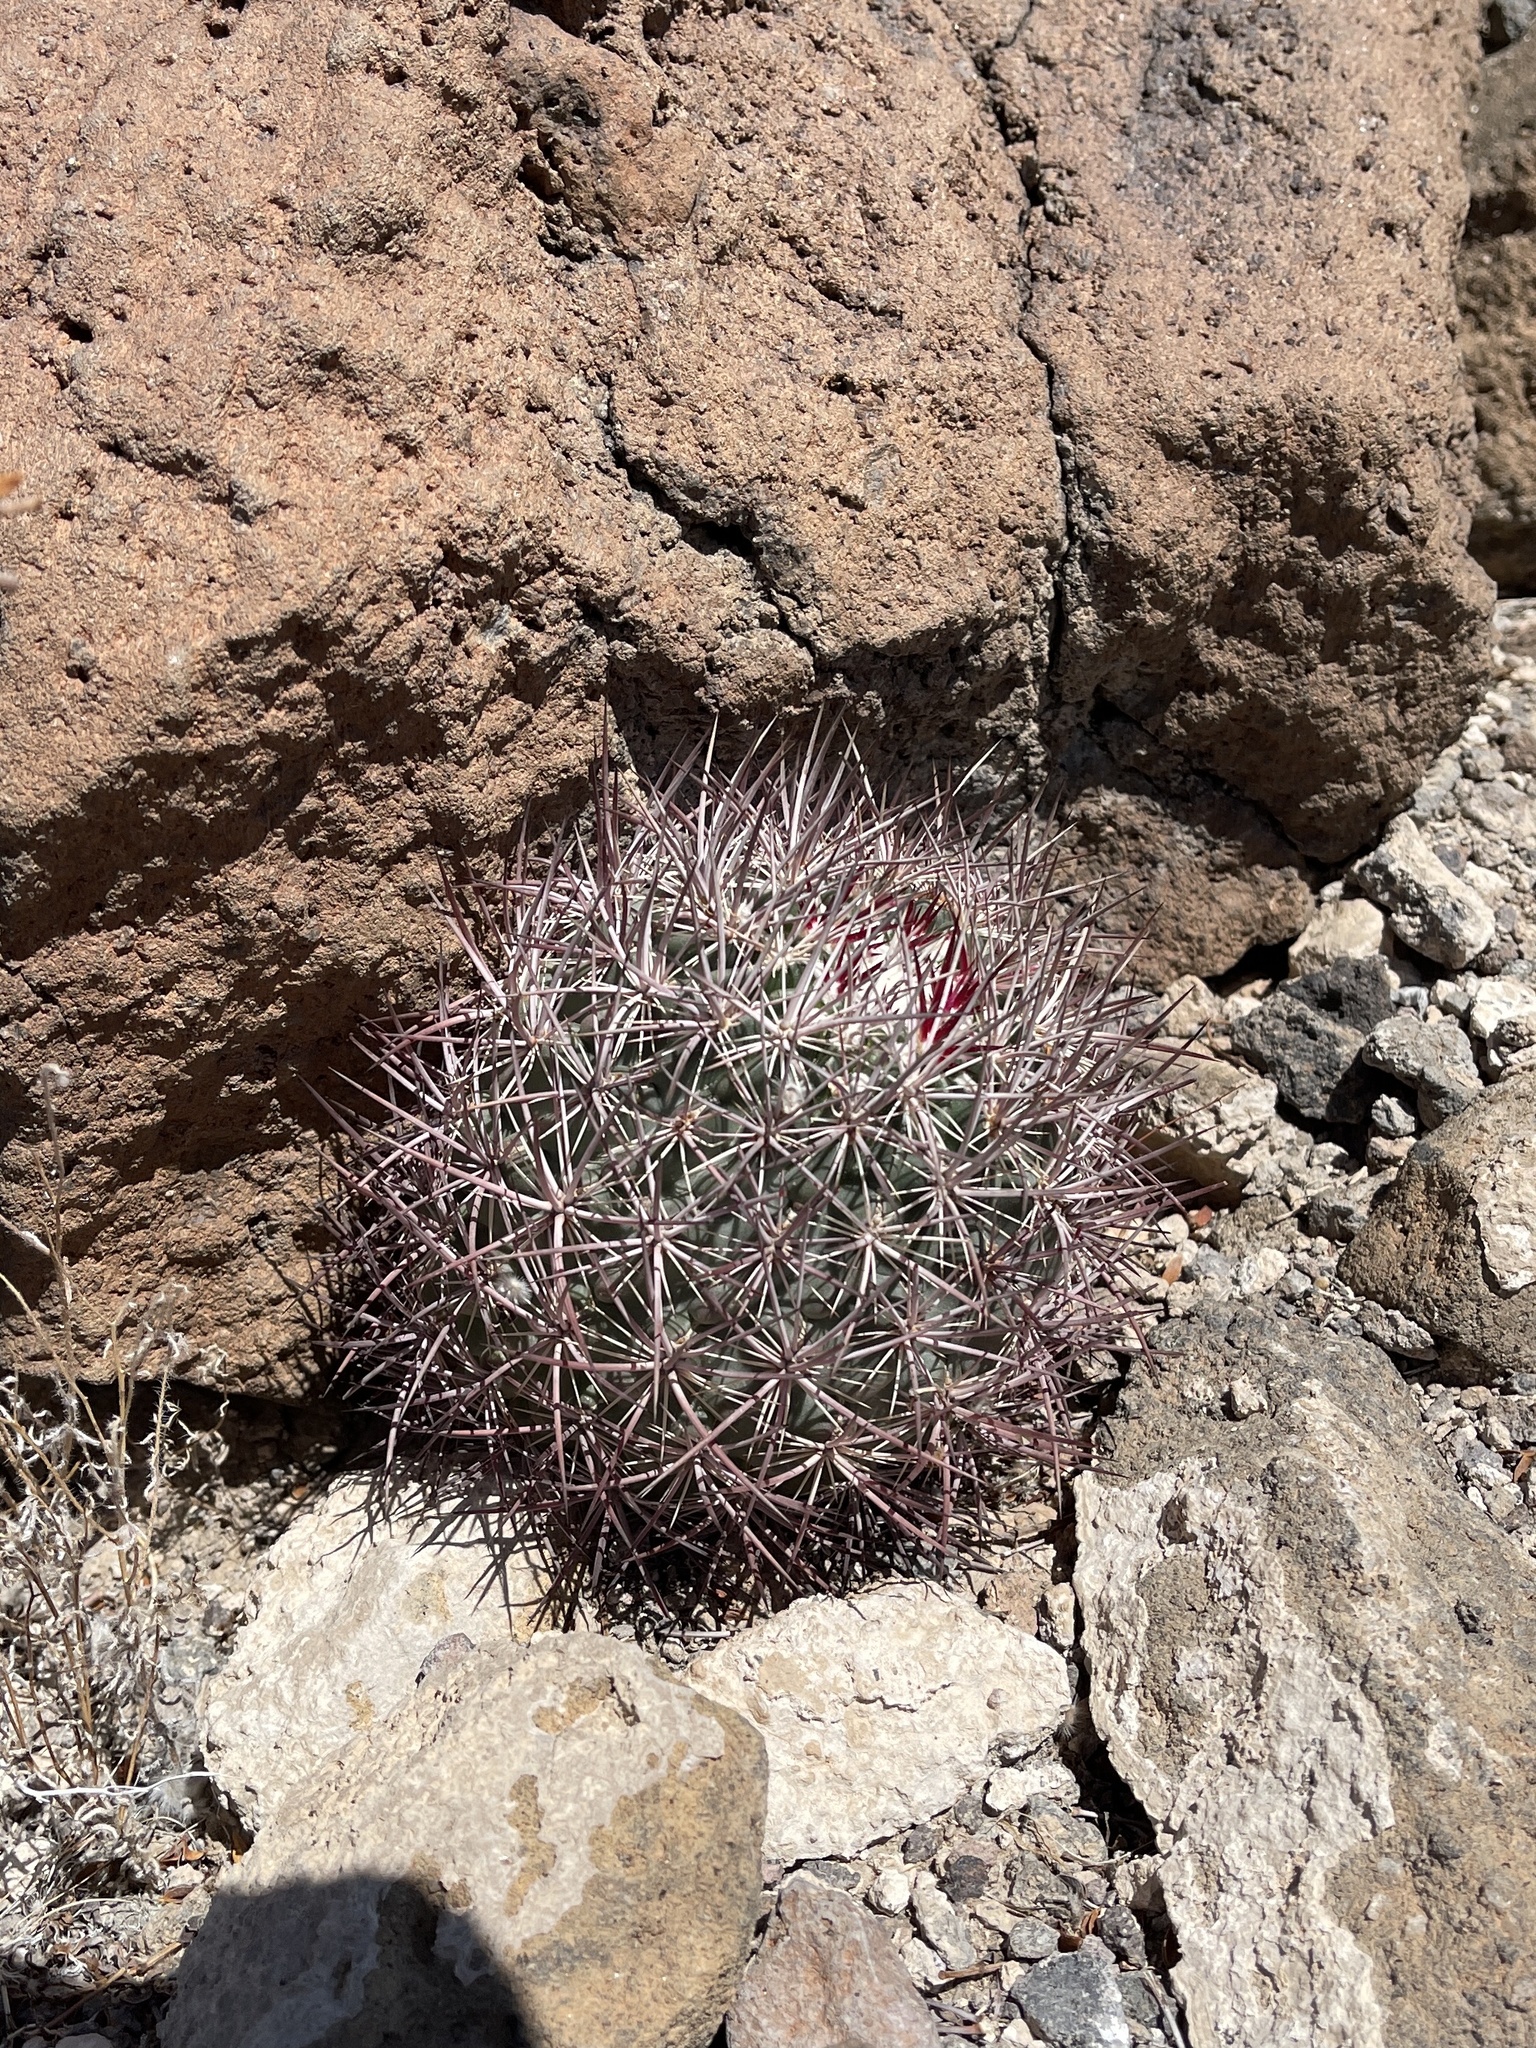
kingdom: Plantae
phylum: Tracheophyta
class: Magnoliopsida
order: Caryophyllales
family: Cactaceae
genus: Sclerocactus
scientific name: Sclerocactus johnsonii
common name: Eight-spine fishhook cactus
